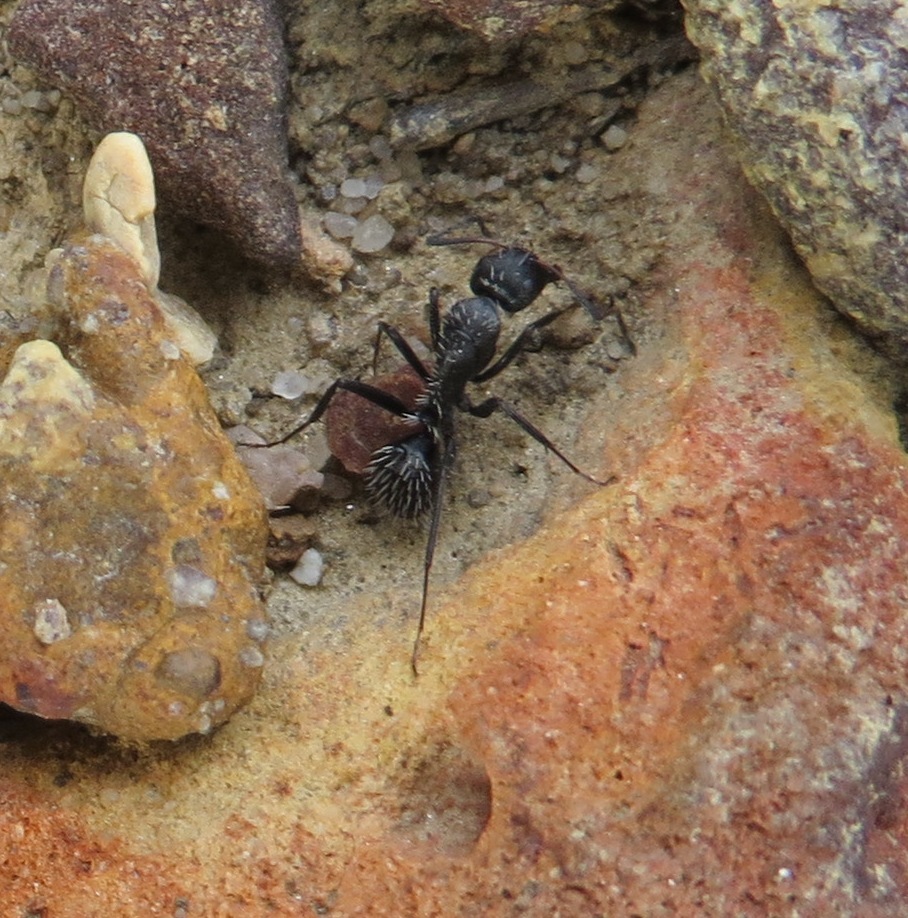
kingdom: Animalia
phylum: Arthropoda
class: Insecta
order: Hymenoptera
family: Formicidae
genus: Camponotus
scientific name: Camponotus niveosetosus
